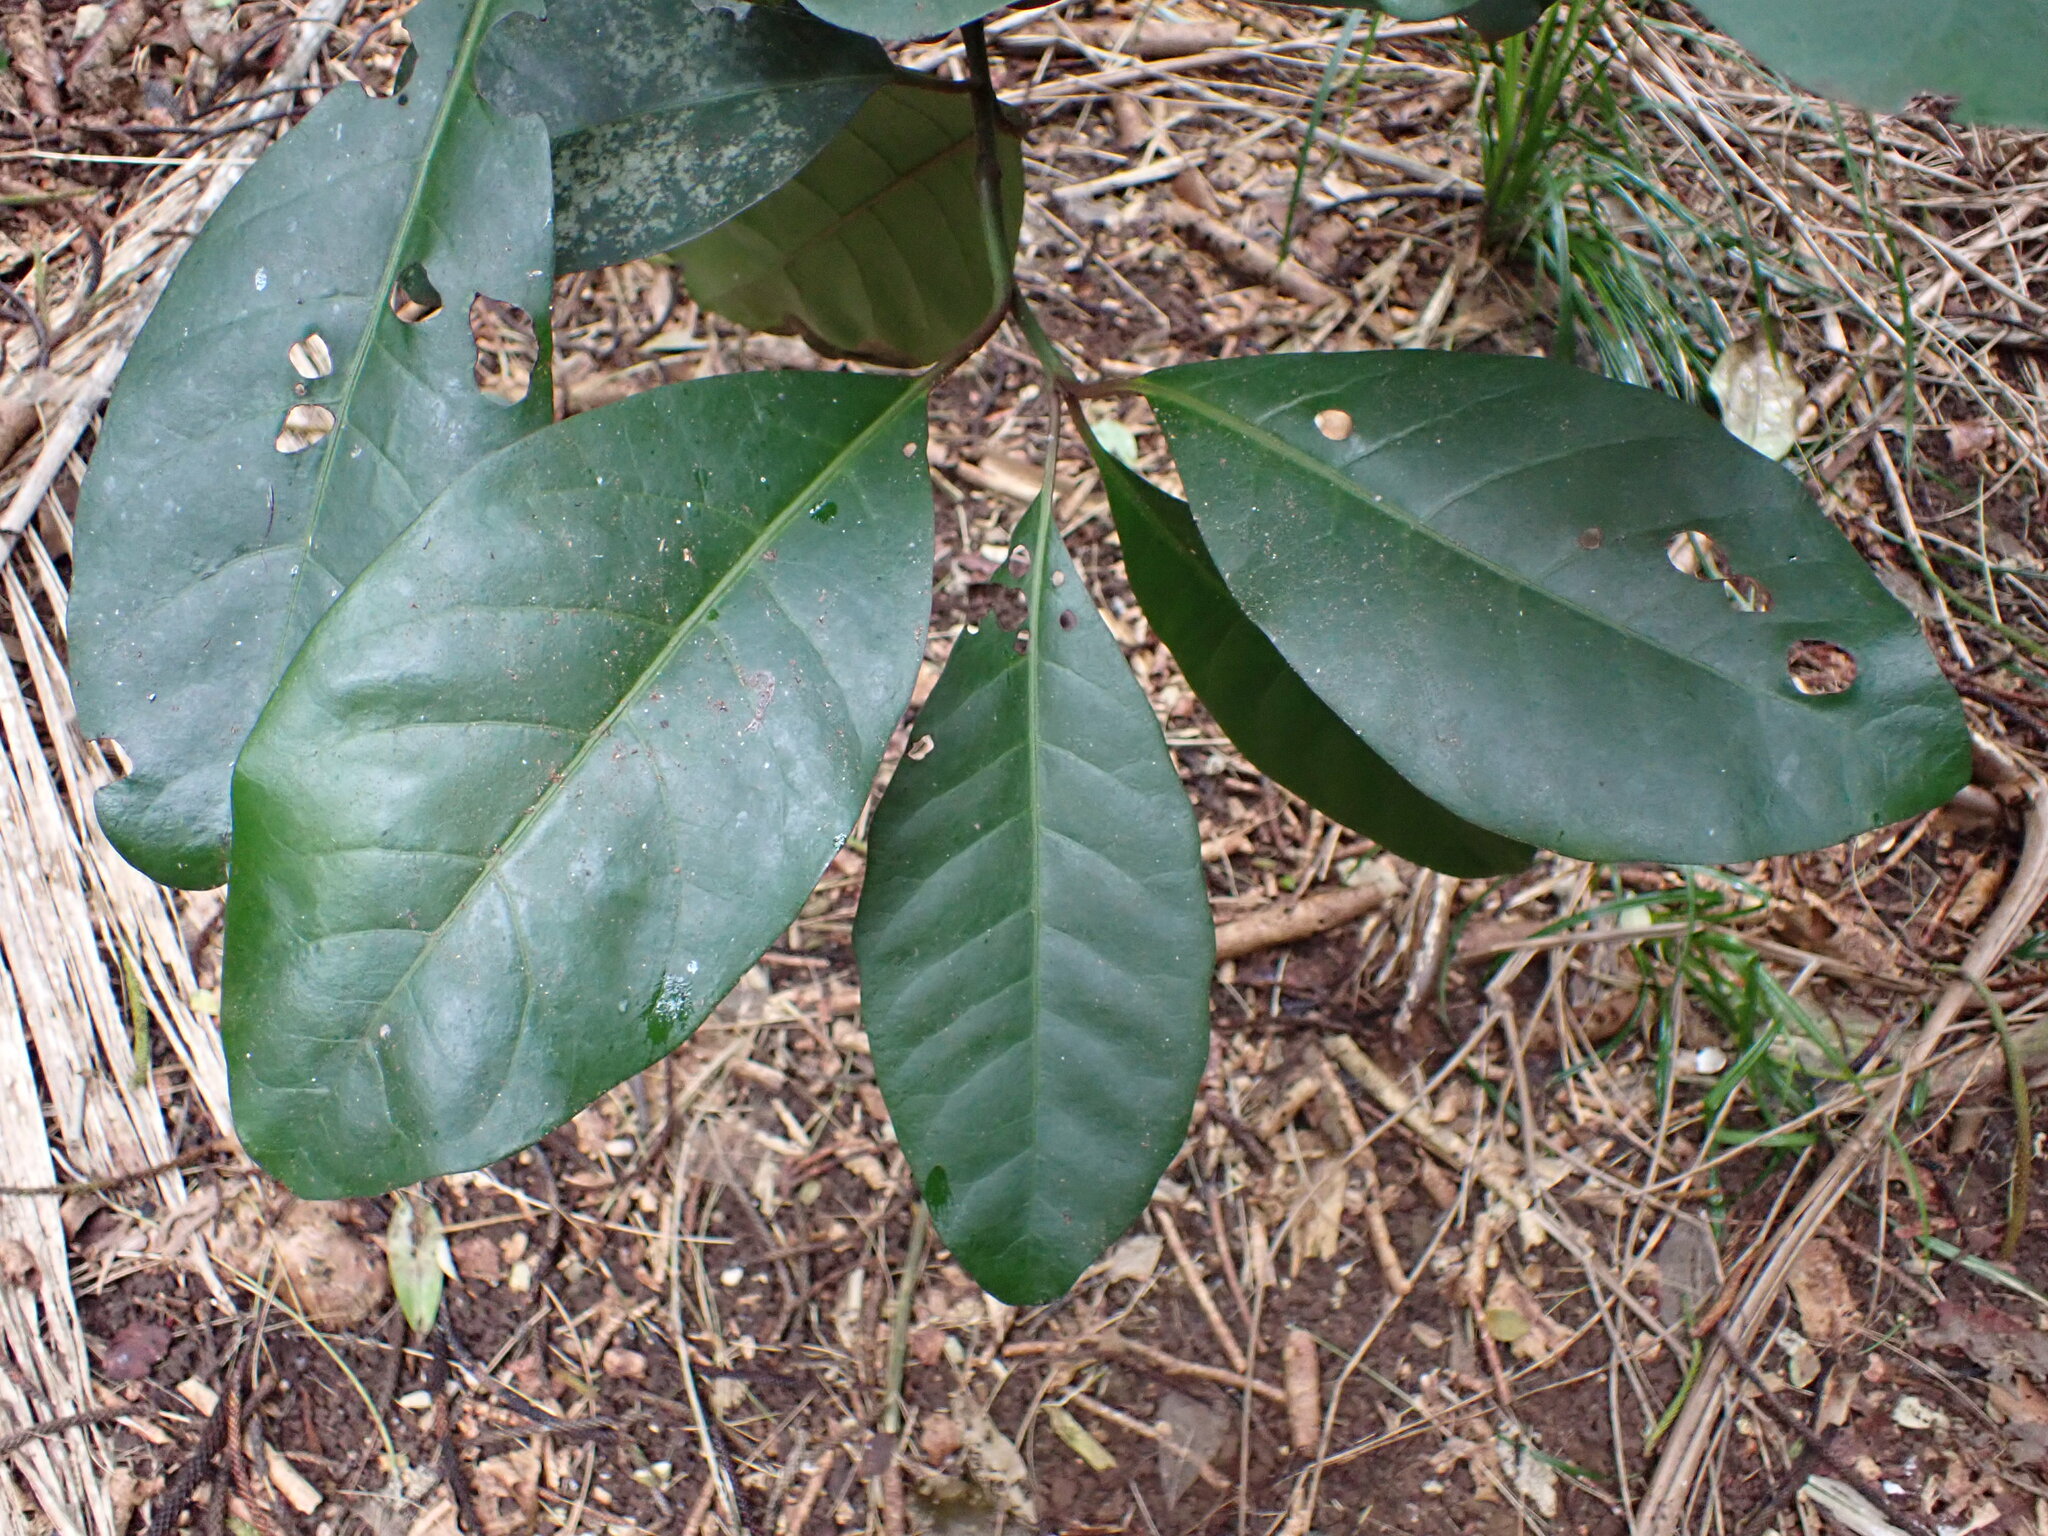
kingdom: Plantae
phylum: Tracheophyta
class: Magnoliopsida
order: Caryophyllales
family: Nyctaginaceae
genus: Ceodes
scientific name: Ceodes brunoniana
